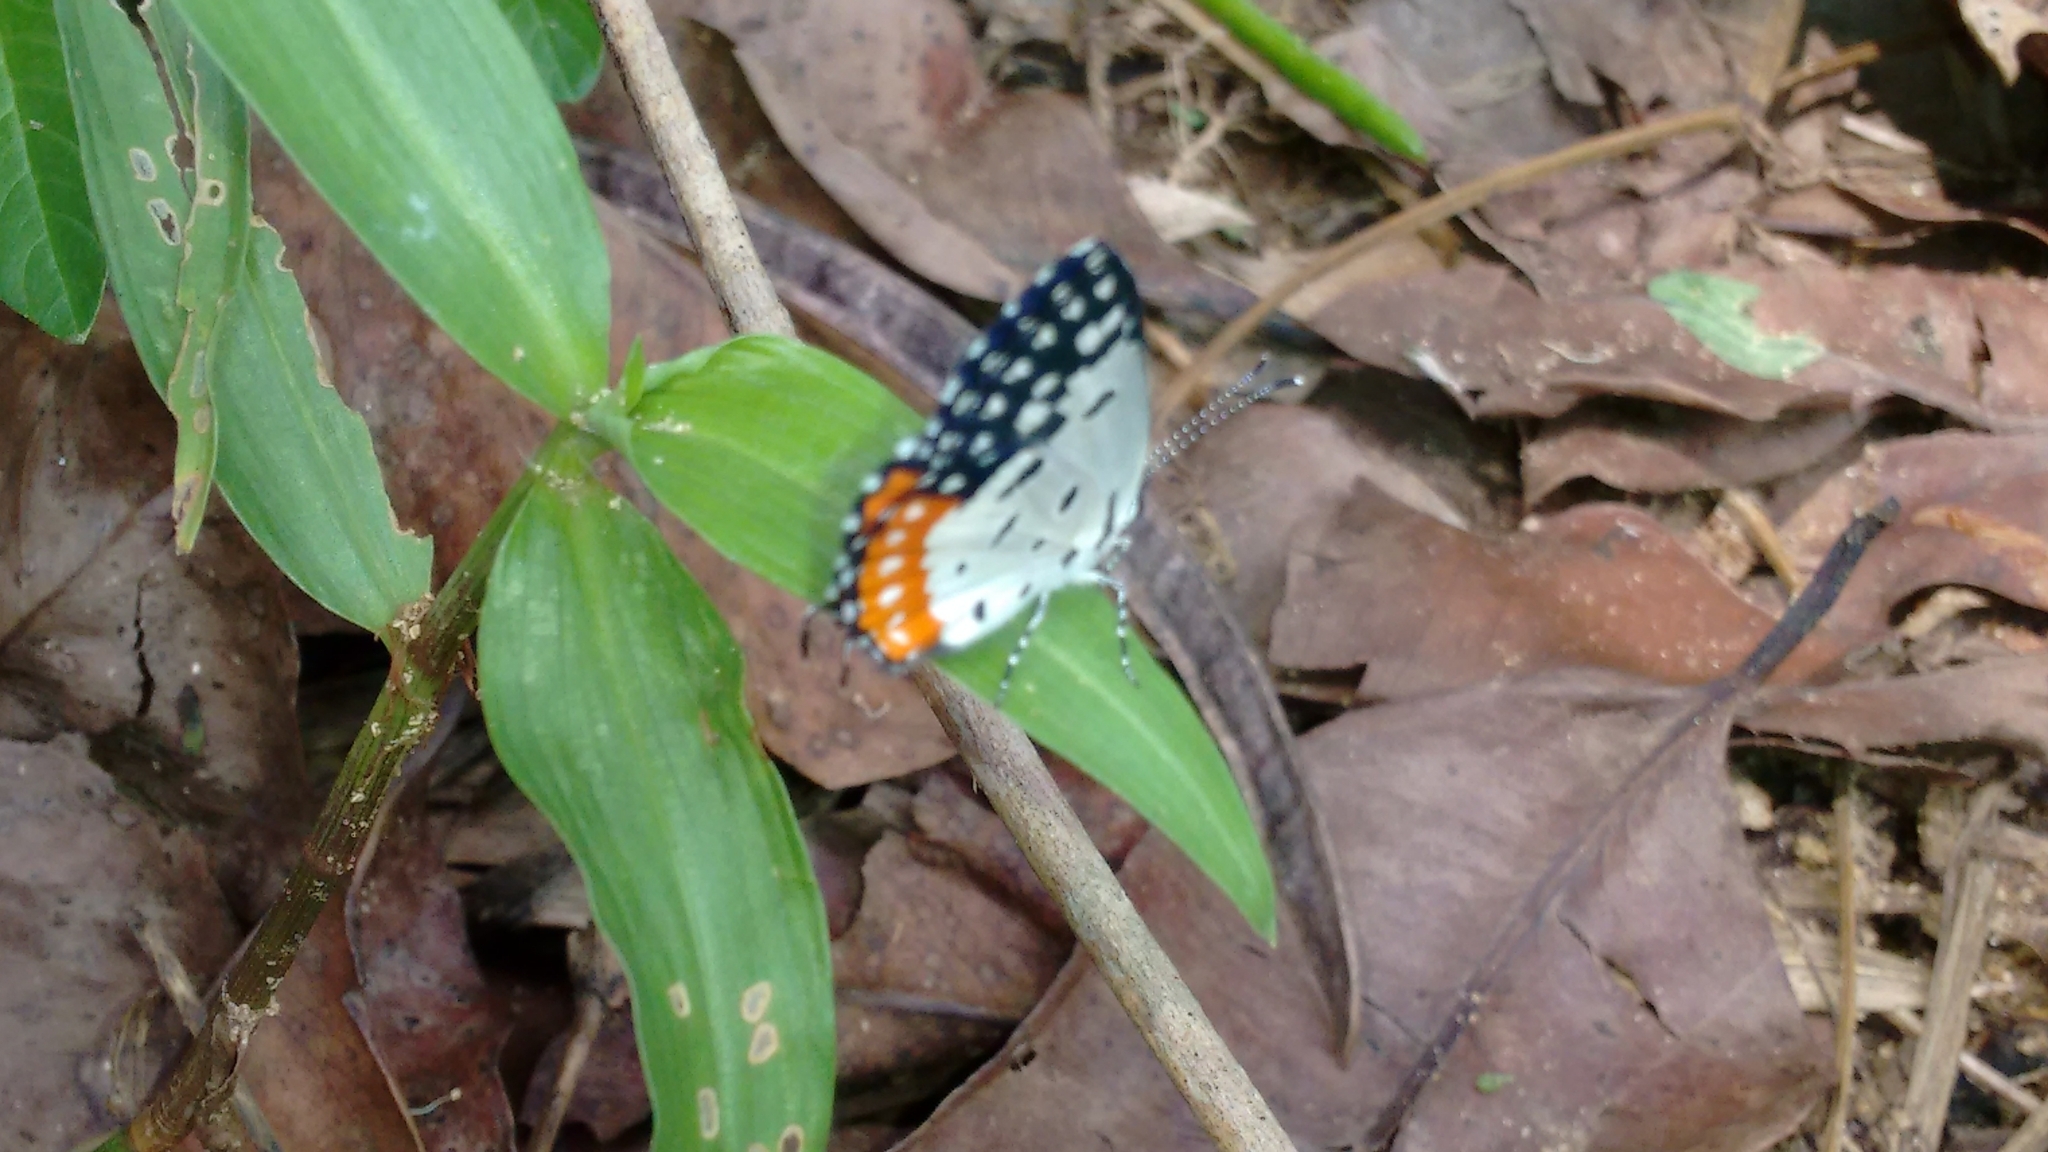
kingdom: Animalia
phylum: Arthropoda
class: Insecta
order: Lepidoptera
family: Lycaenidae
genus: Talicada
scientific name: Talicada nyseus
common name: Red pierrot
